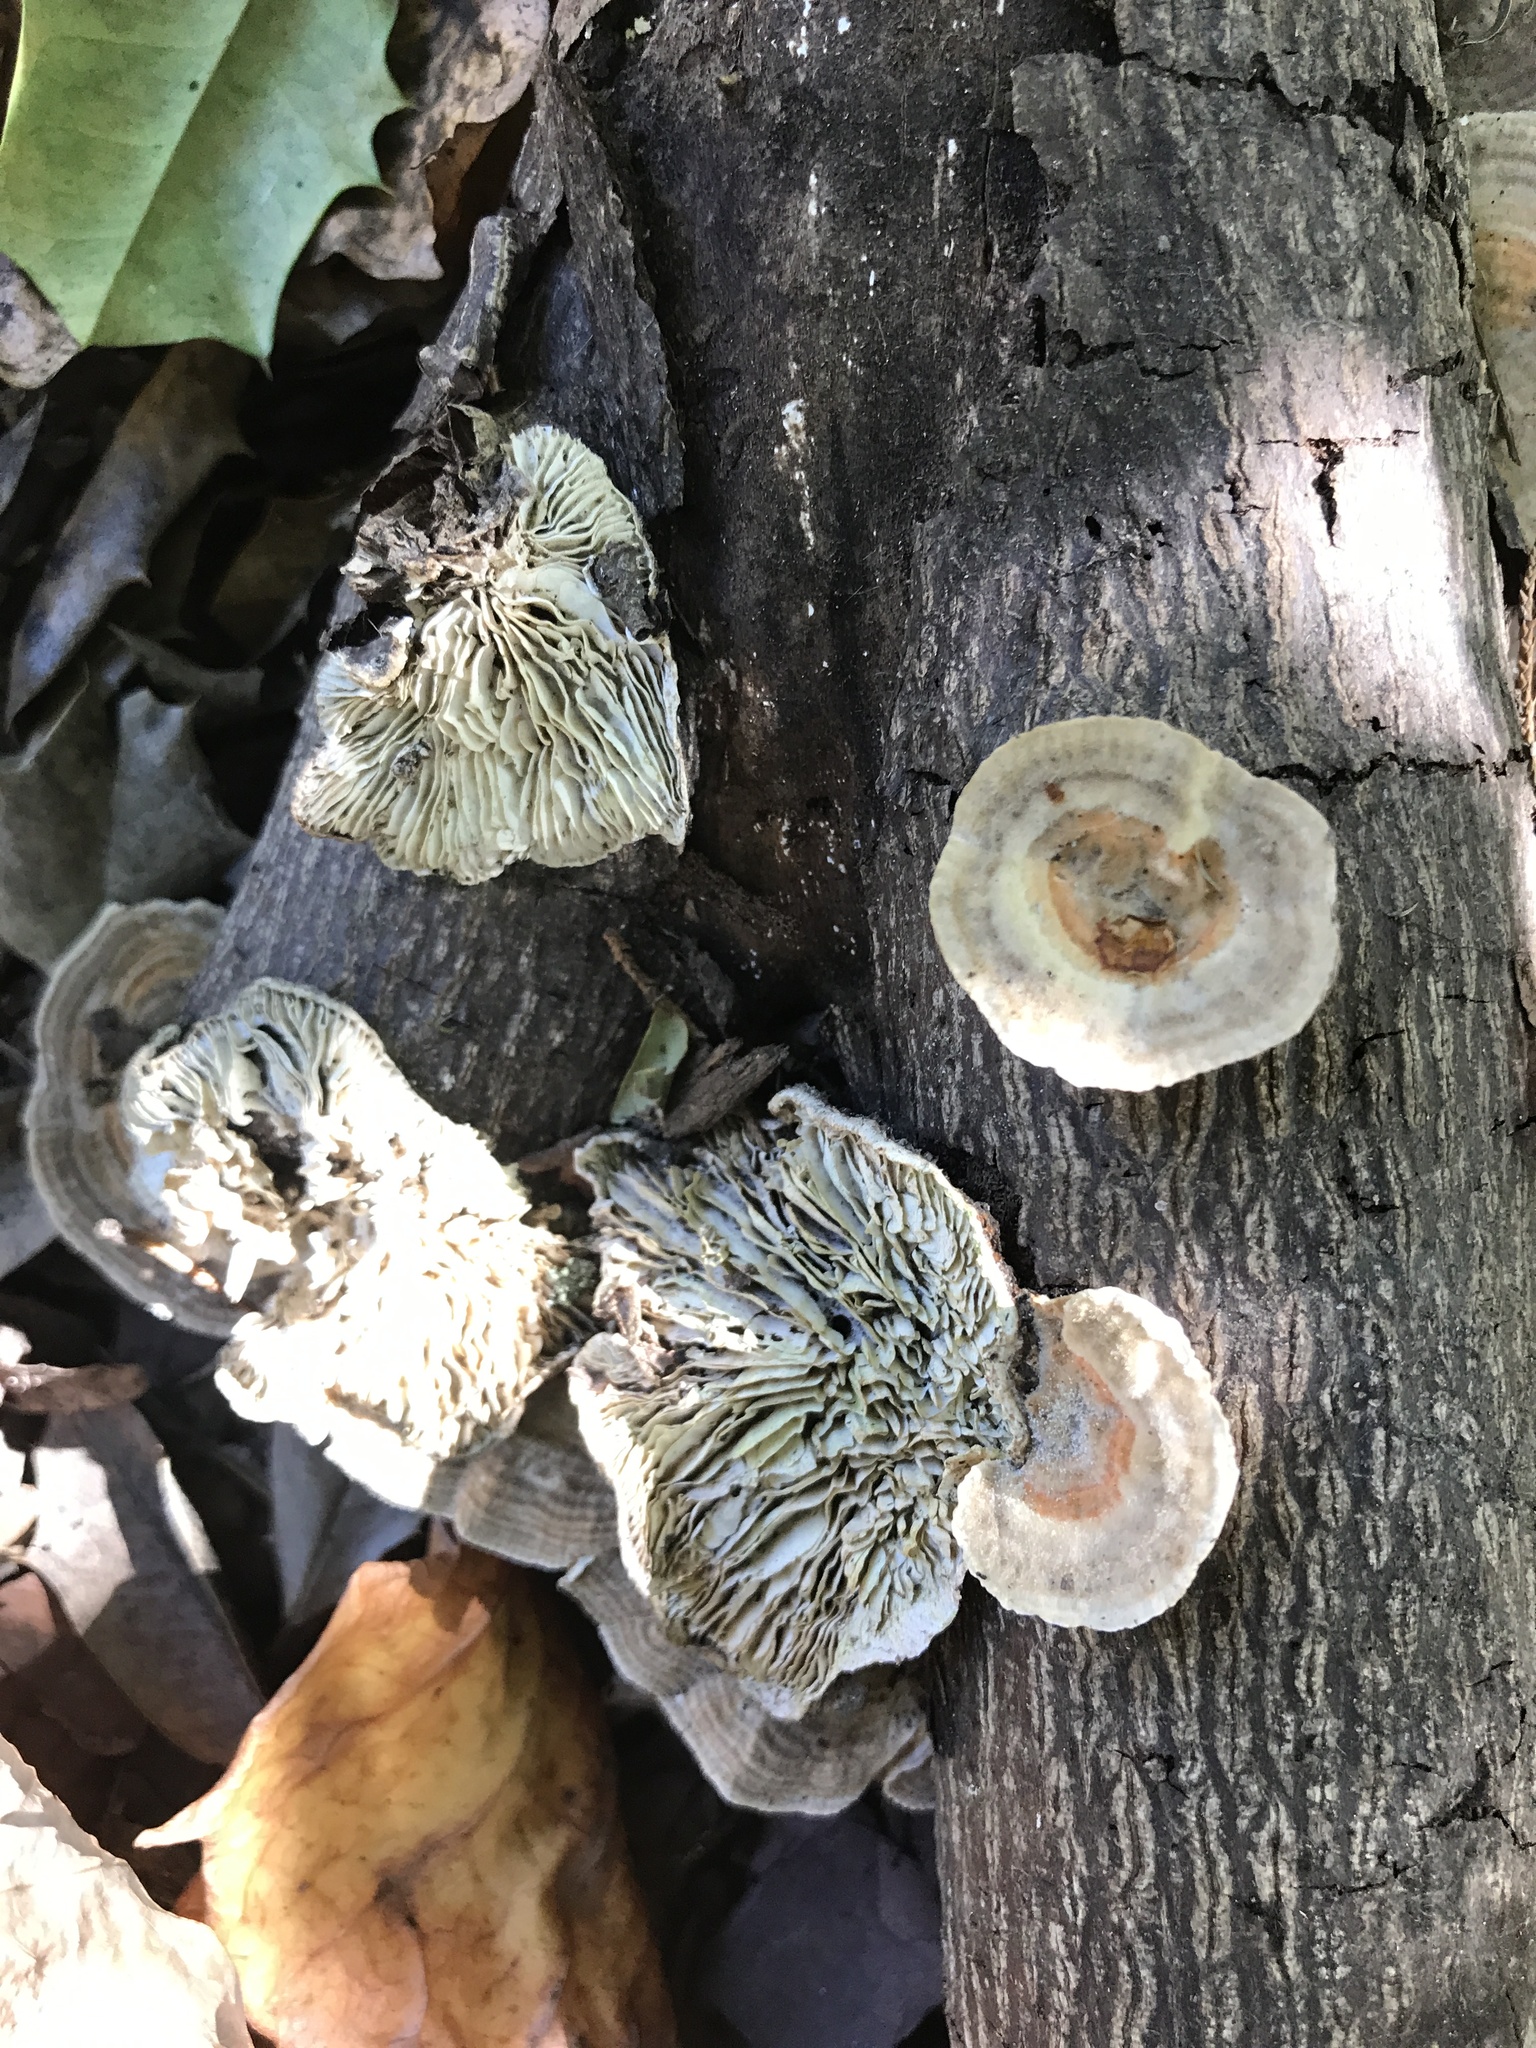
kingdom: Fungi
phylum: Basidiomycota
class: Agaricomycetes
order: Polyporales
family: Polyporaceae
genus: Lenzites
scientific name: Lenzites betulinus
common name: Birch mazegill
